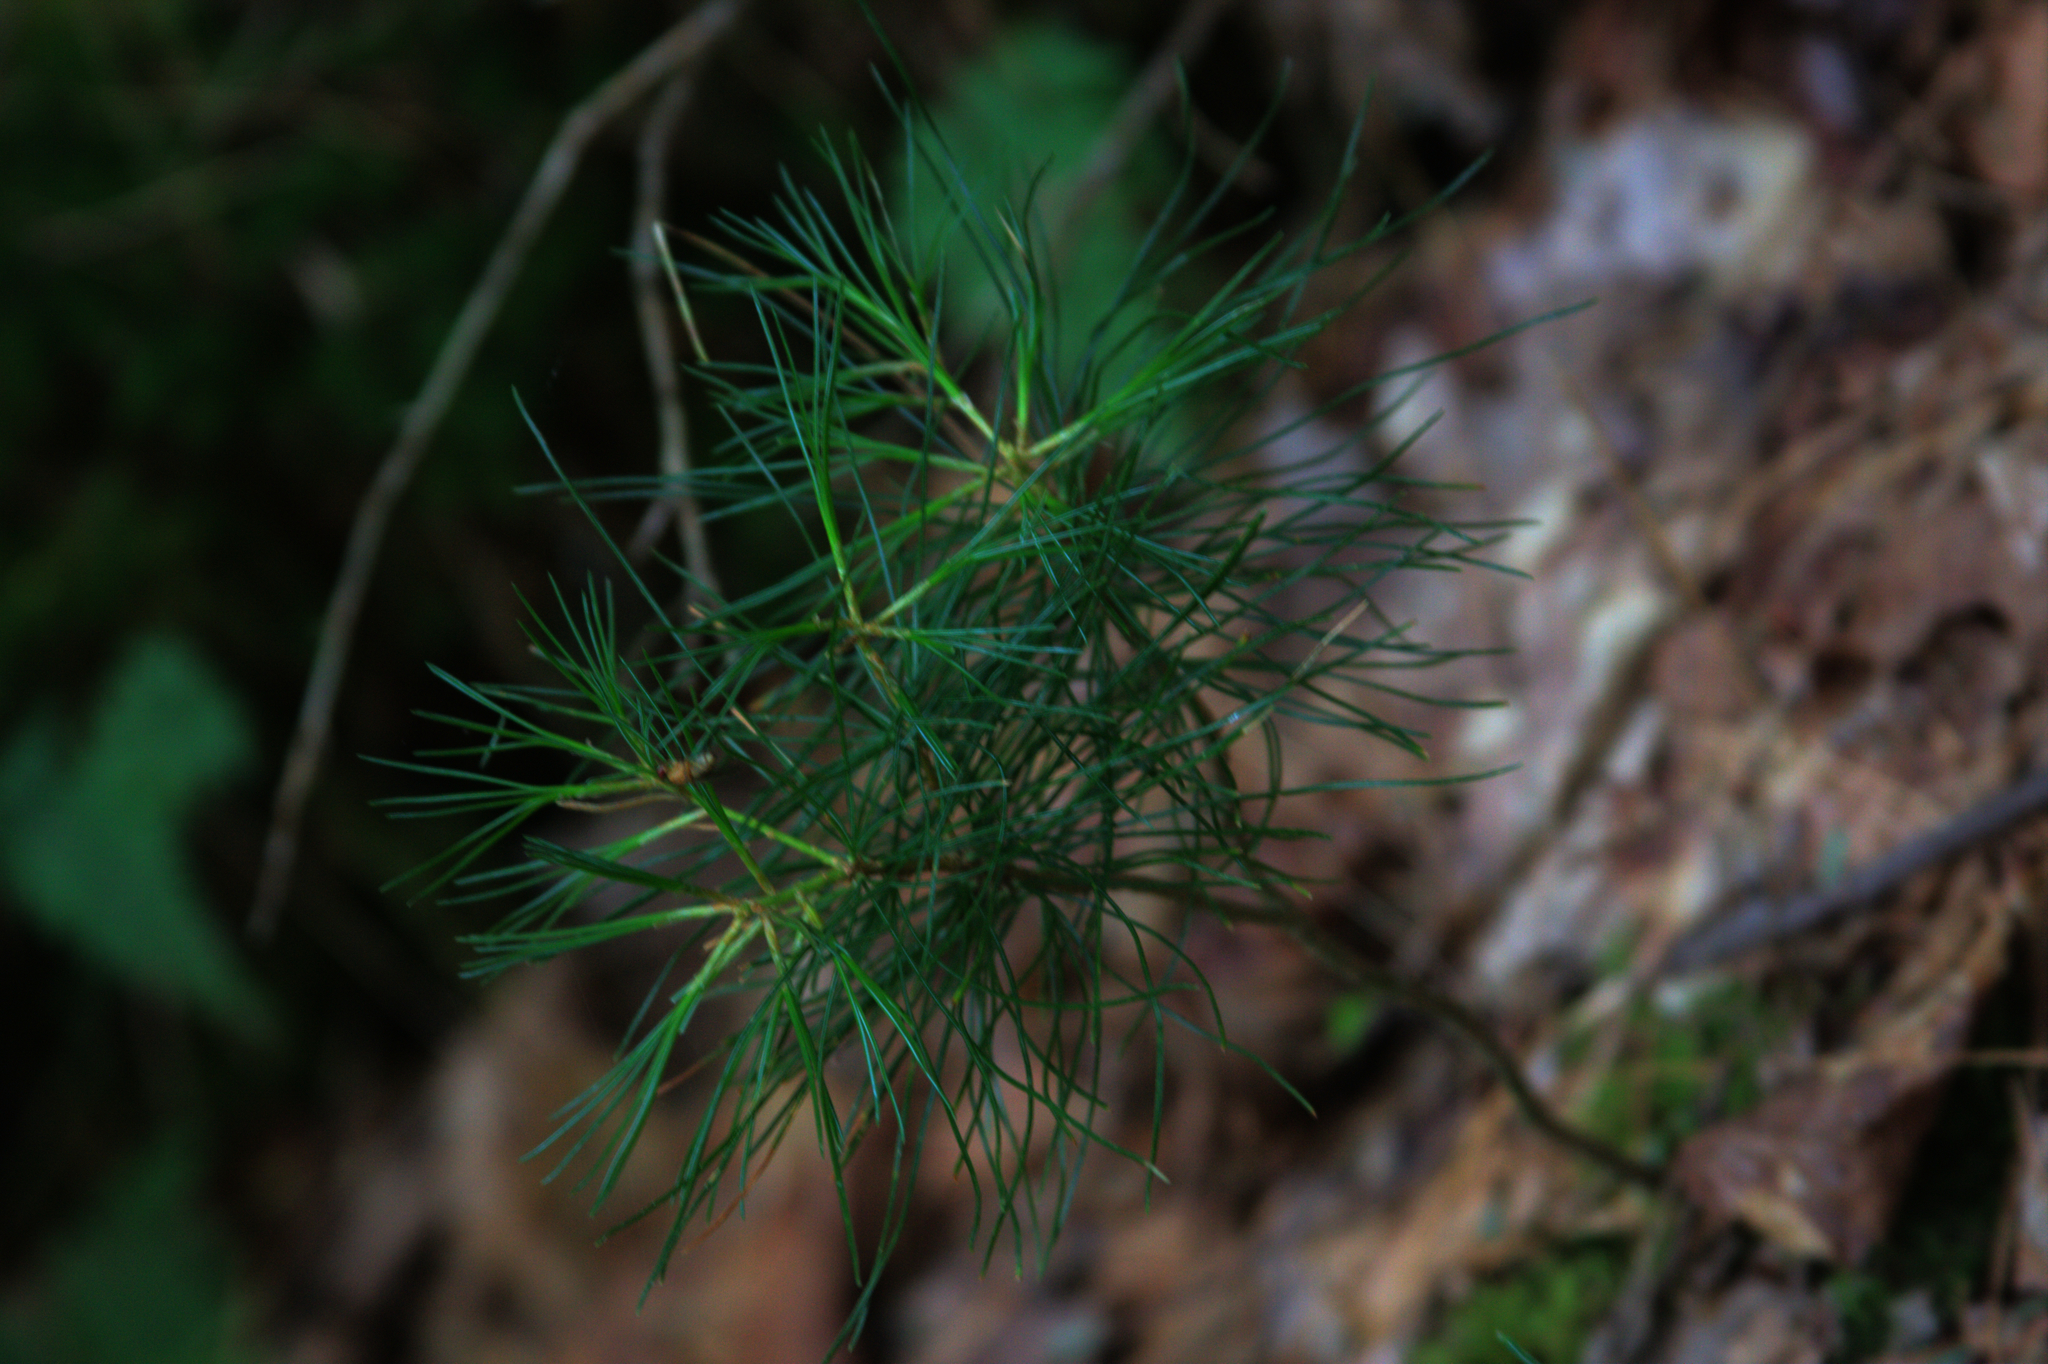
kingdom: Plantae
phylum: Tracheophyta
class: Pinopsida
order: Pinales
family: Pinaceae
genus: Pinus
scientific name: Pinus strobus
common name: Weymouth pine
